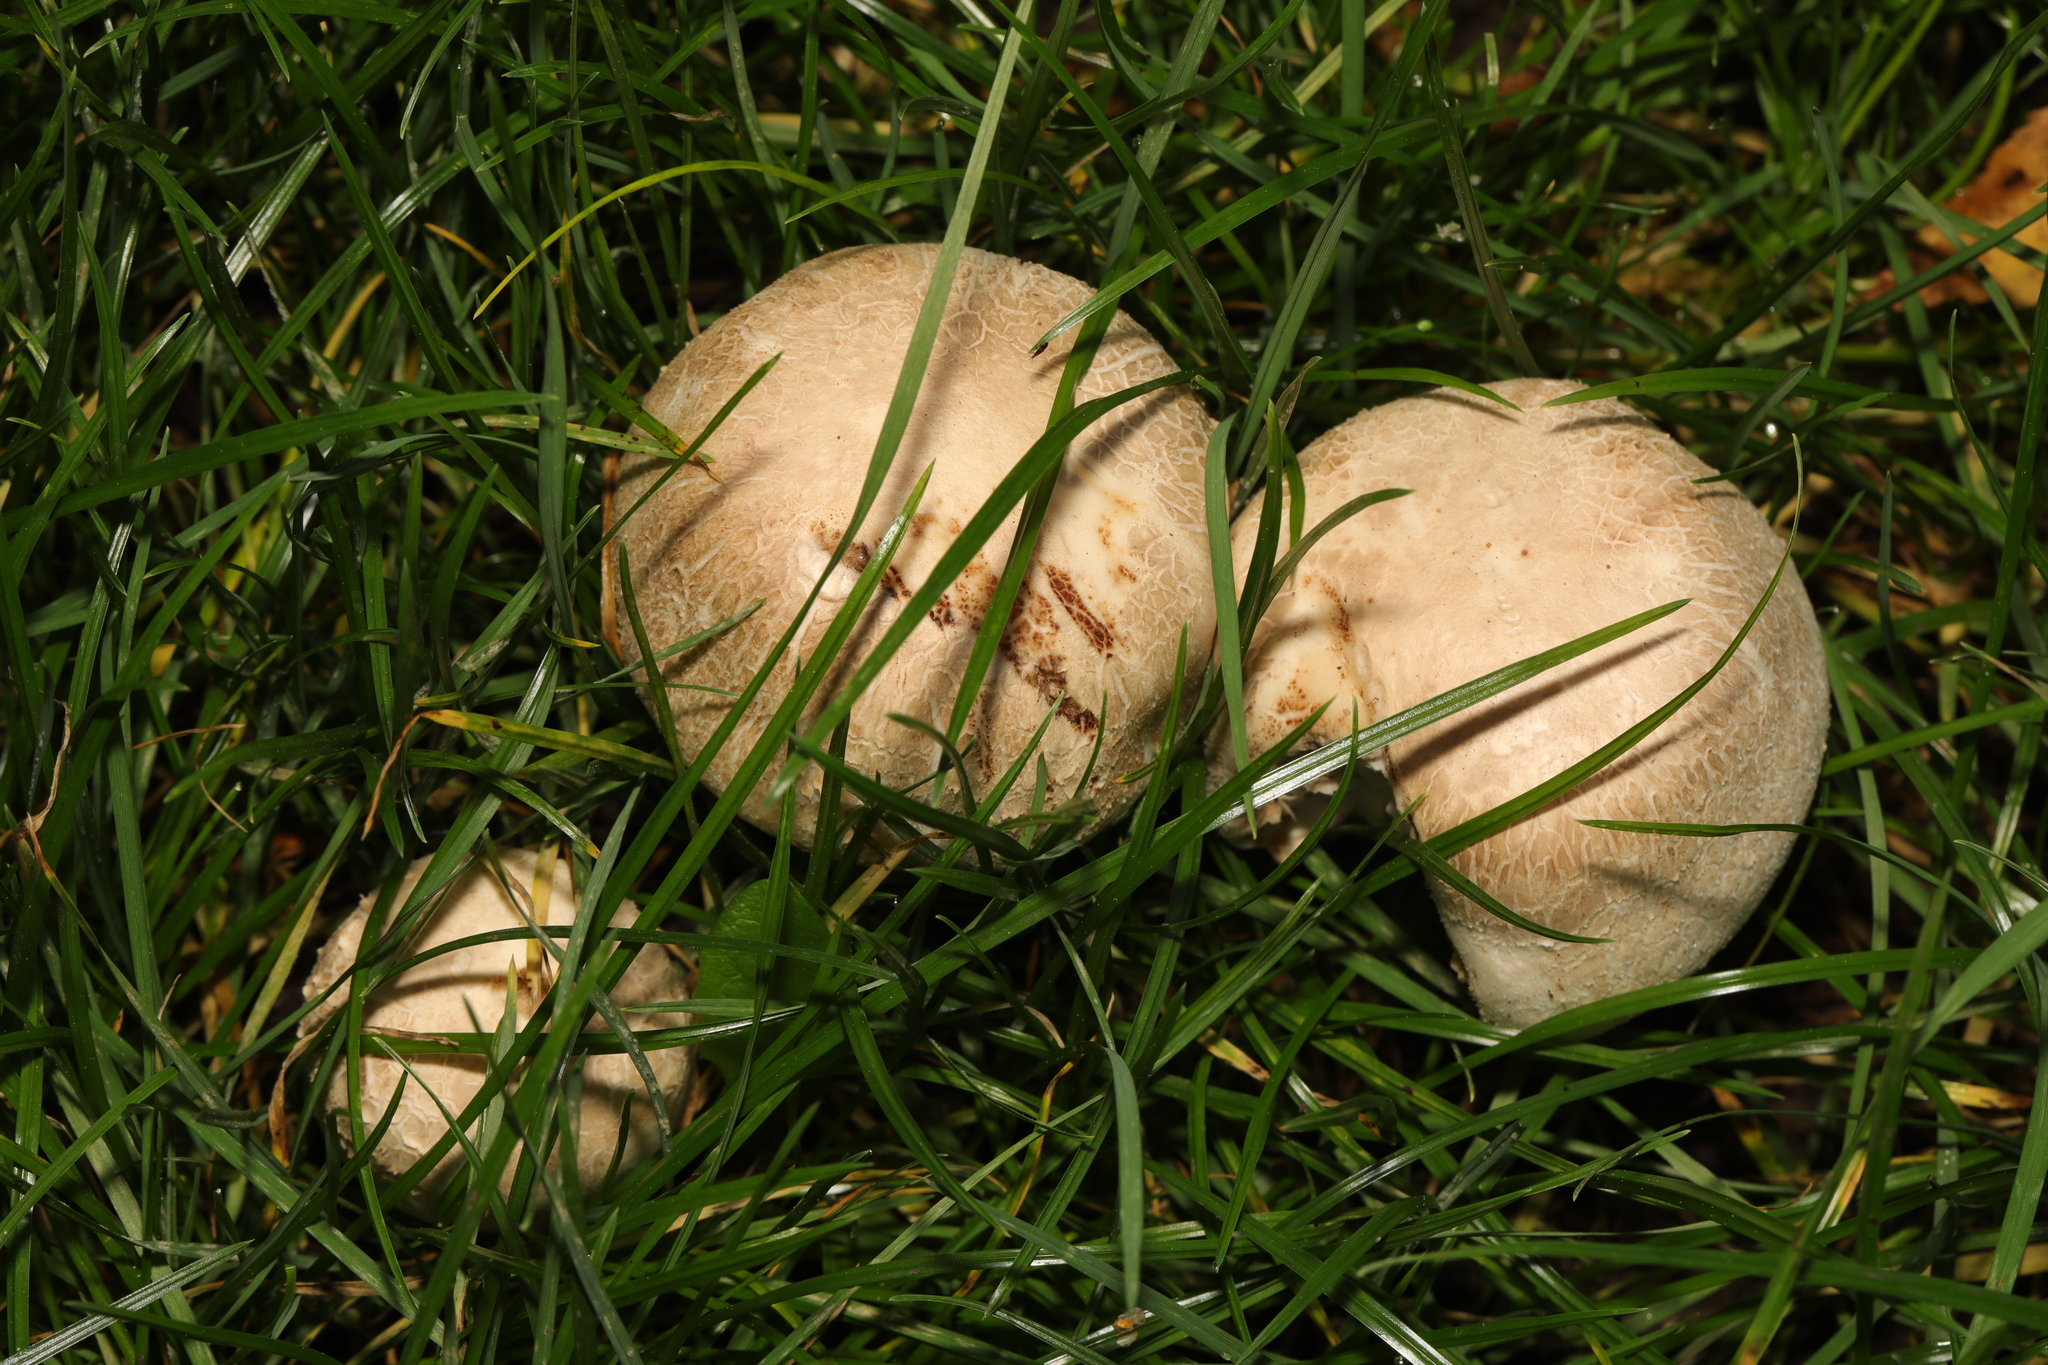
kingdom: Fungi
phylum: Basidiomycota
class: Agaricomycetes
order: Agaricales
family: Agaricaceae
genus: Agaricus
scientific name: Agaricus arvensis
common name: Horse mushroom
